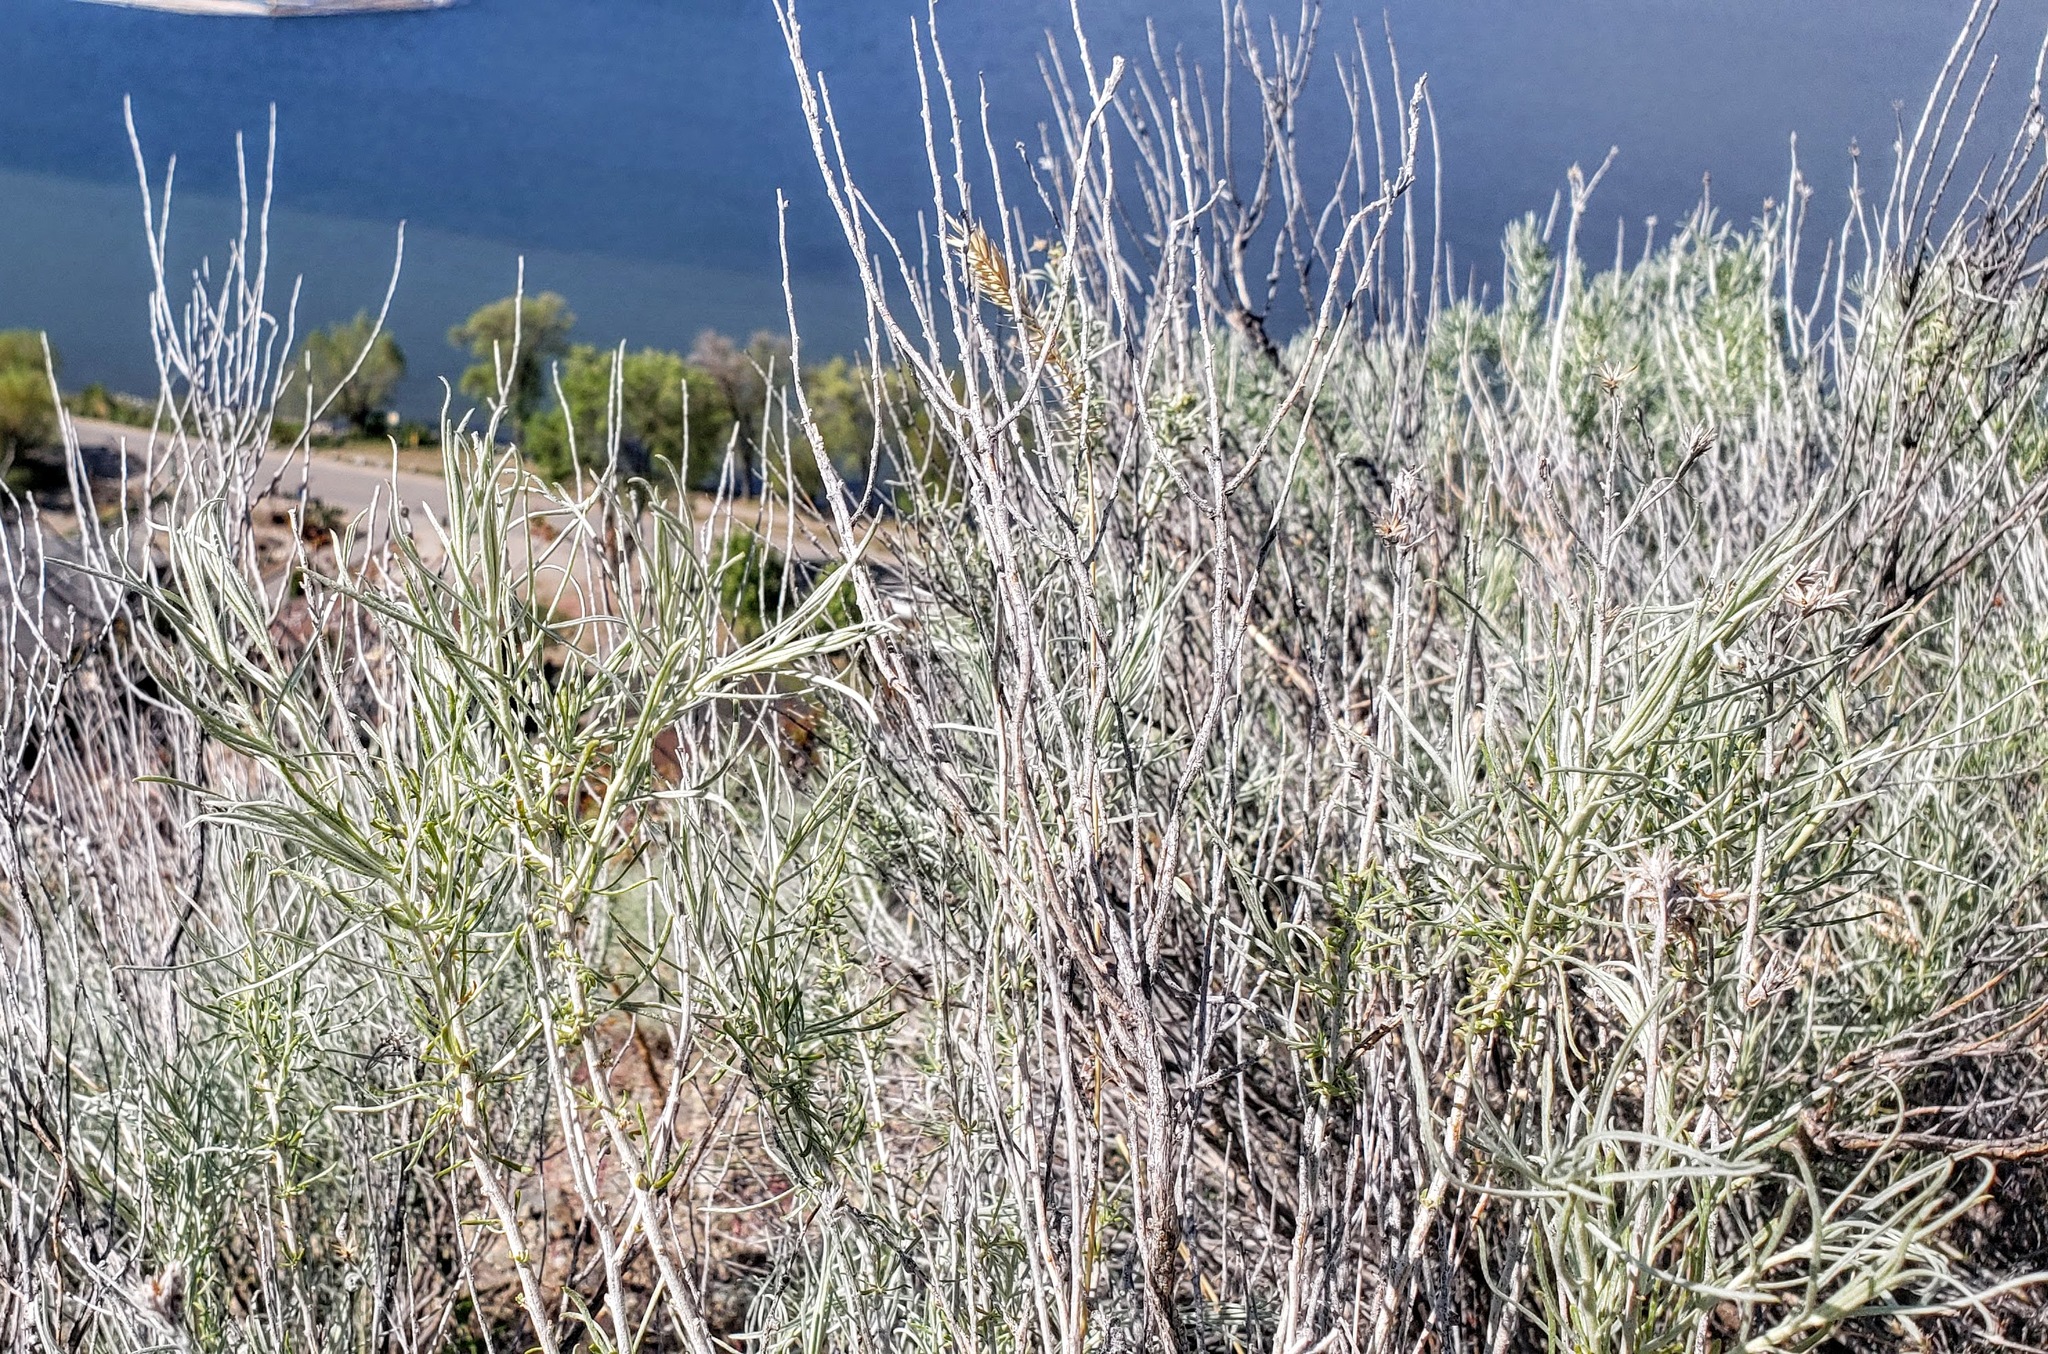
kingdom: Plantae
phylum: Tracheophyta
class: Magnoliopsida
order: Asterales
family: Asteraceae
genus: Ericameria
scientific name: Ericameria nauseosa
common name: Rubber rabbitbrush
